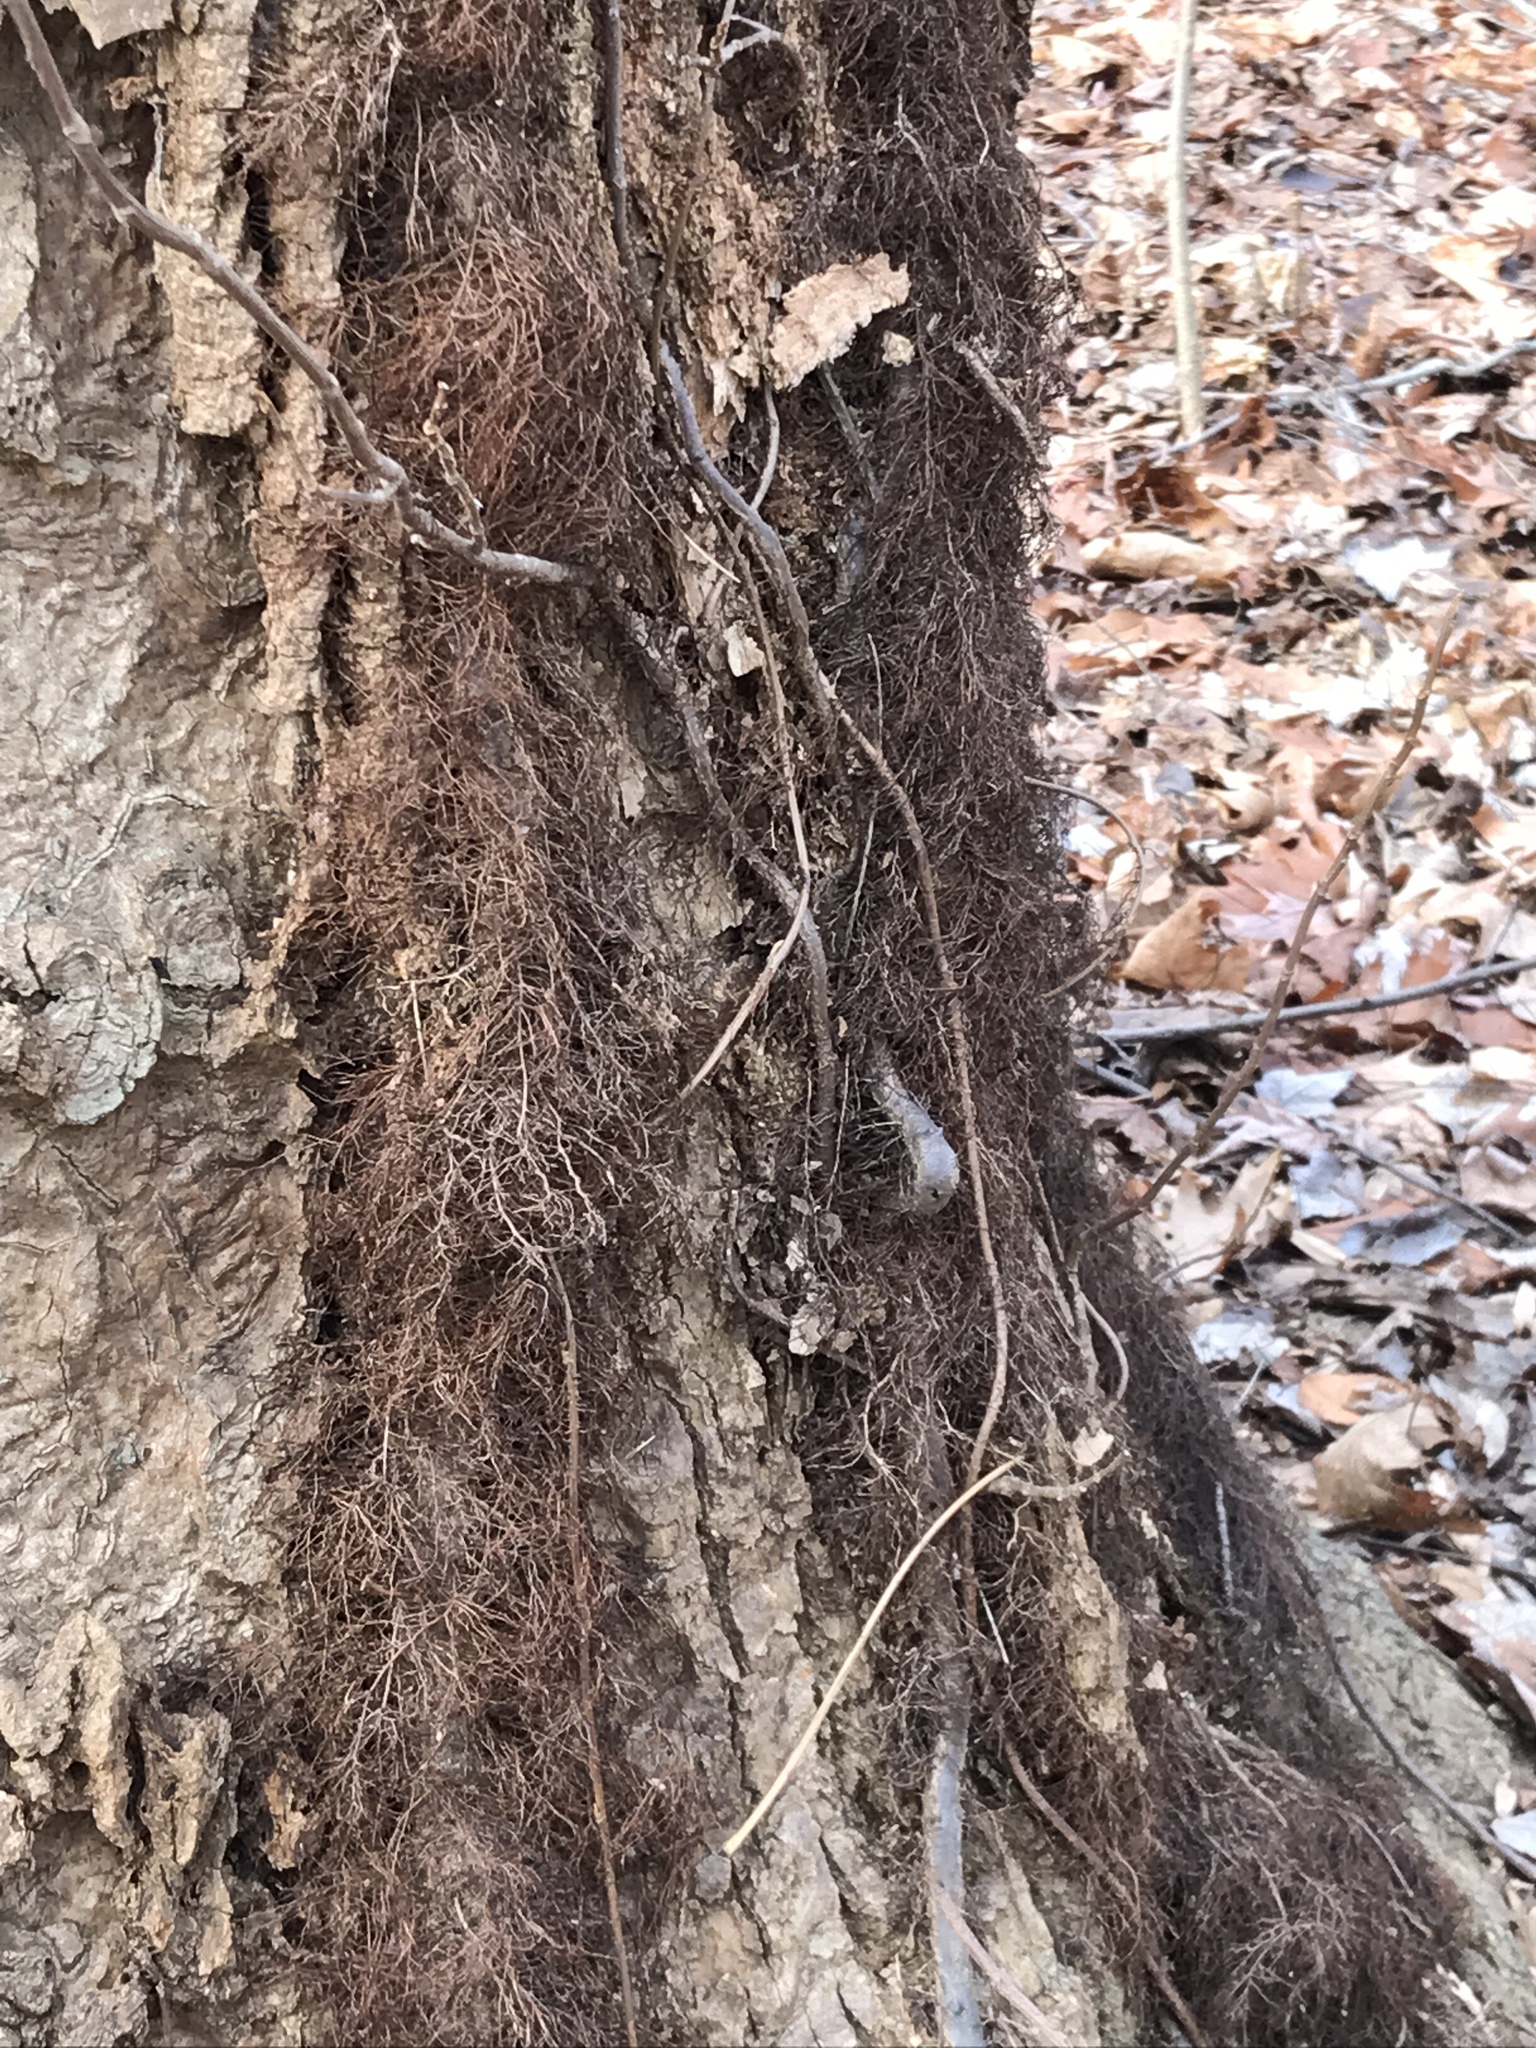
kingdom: Plantae
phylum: Tracheophyta
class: Magnoliopsida
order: Sapindales
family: Anacardiaceae
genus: Toxicodendron
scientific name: Toxicodendron radicans
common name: Poison ivy
